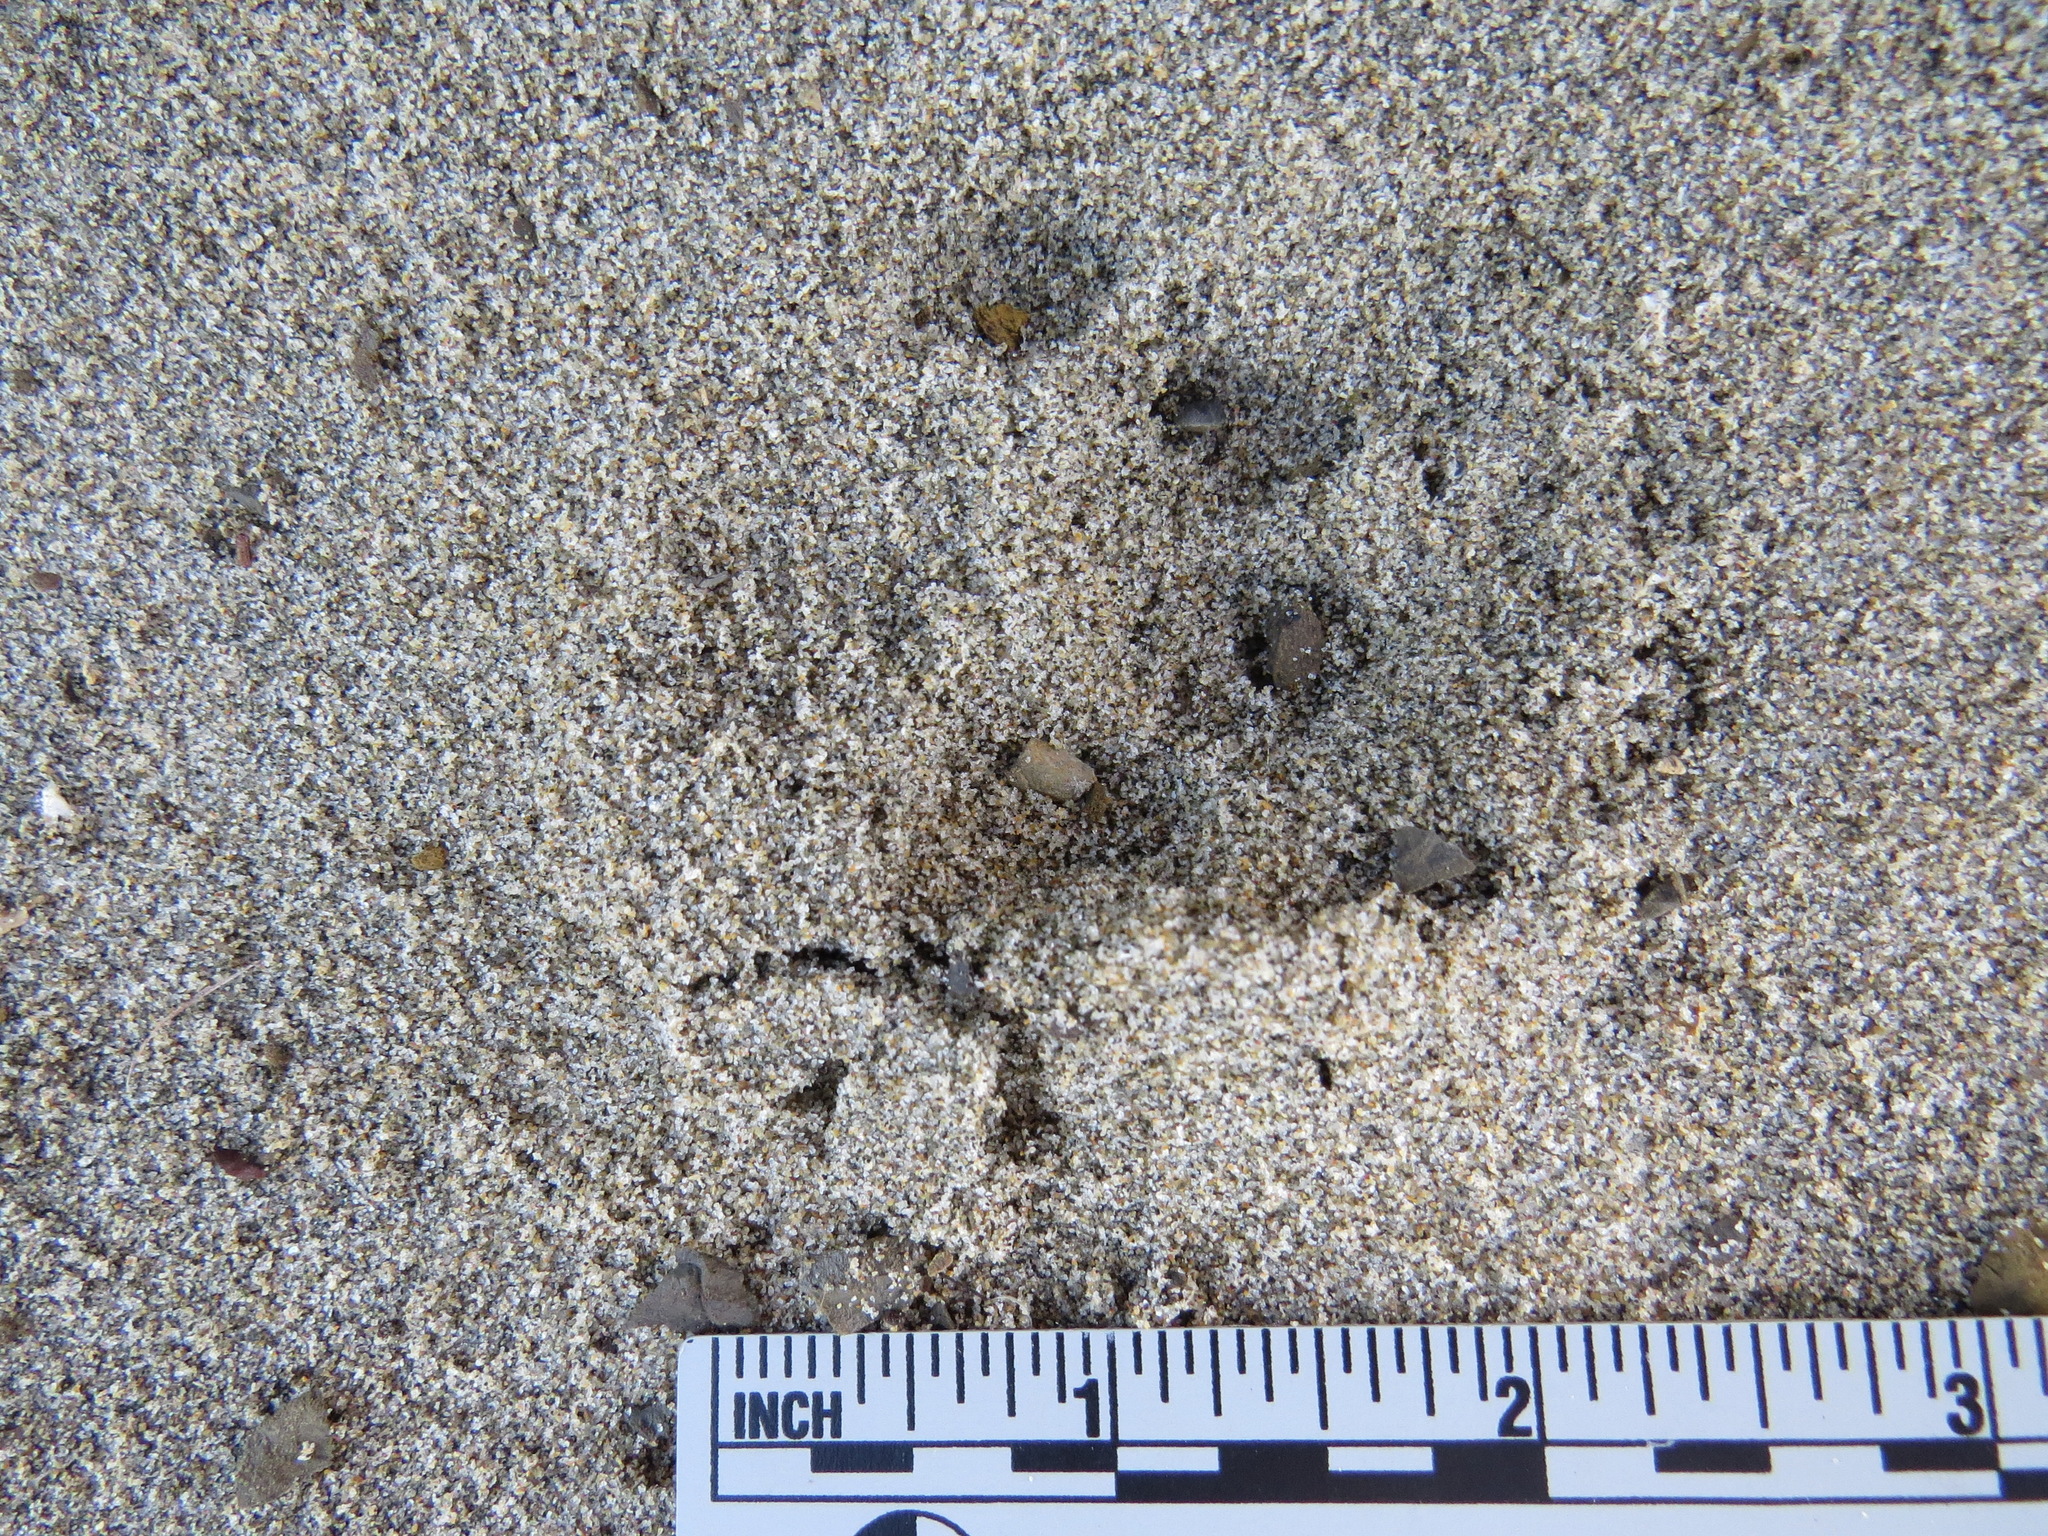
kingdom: Animalia
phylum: Chordata
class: Mammalia
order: Carnivora
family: Felidae
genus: Lynx
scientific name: Lynx rufus
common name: Bobcat
